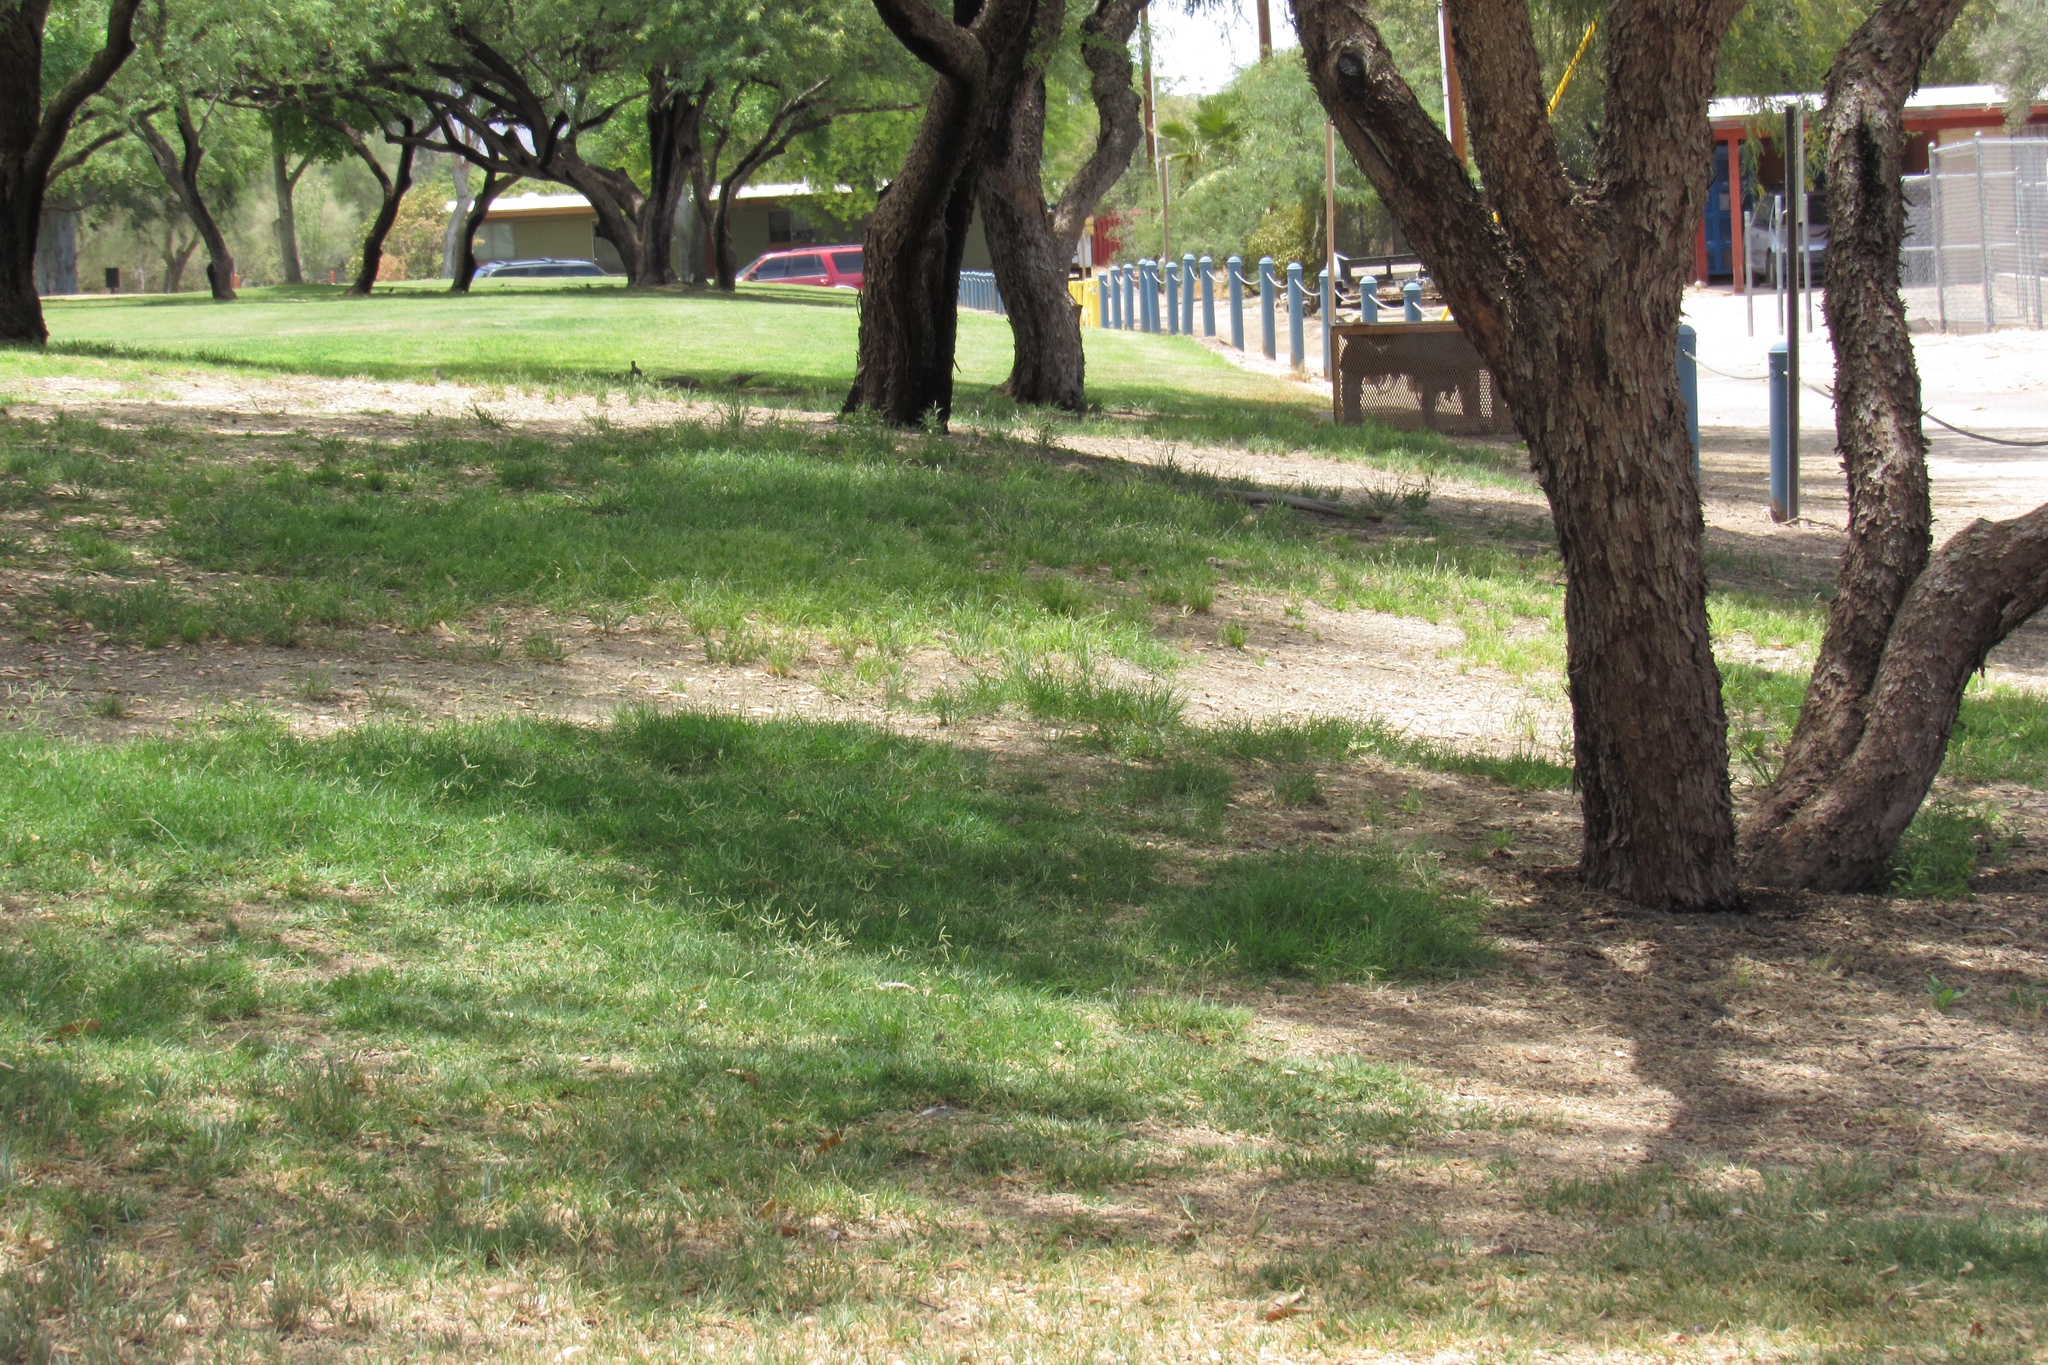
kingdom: Animalia
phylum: Chordata
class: Aves
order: Columbiformes
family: Columbidae
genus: Zenaida
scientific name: Zenaida macroura
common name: Mourning dove
